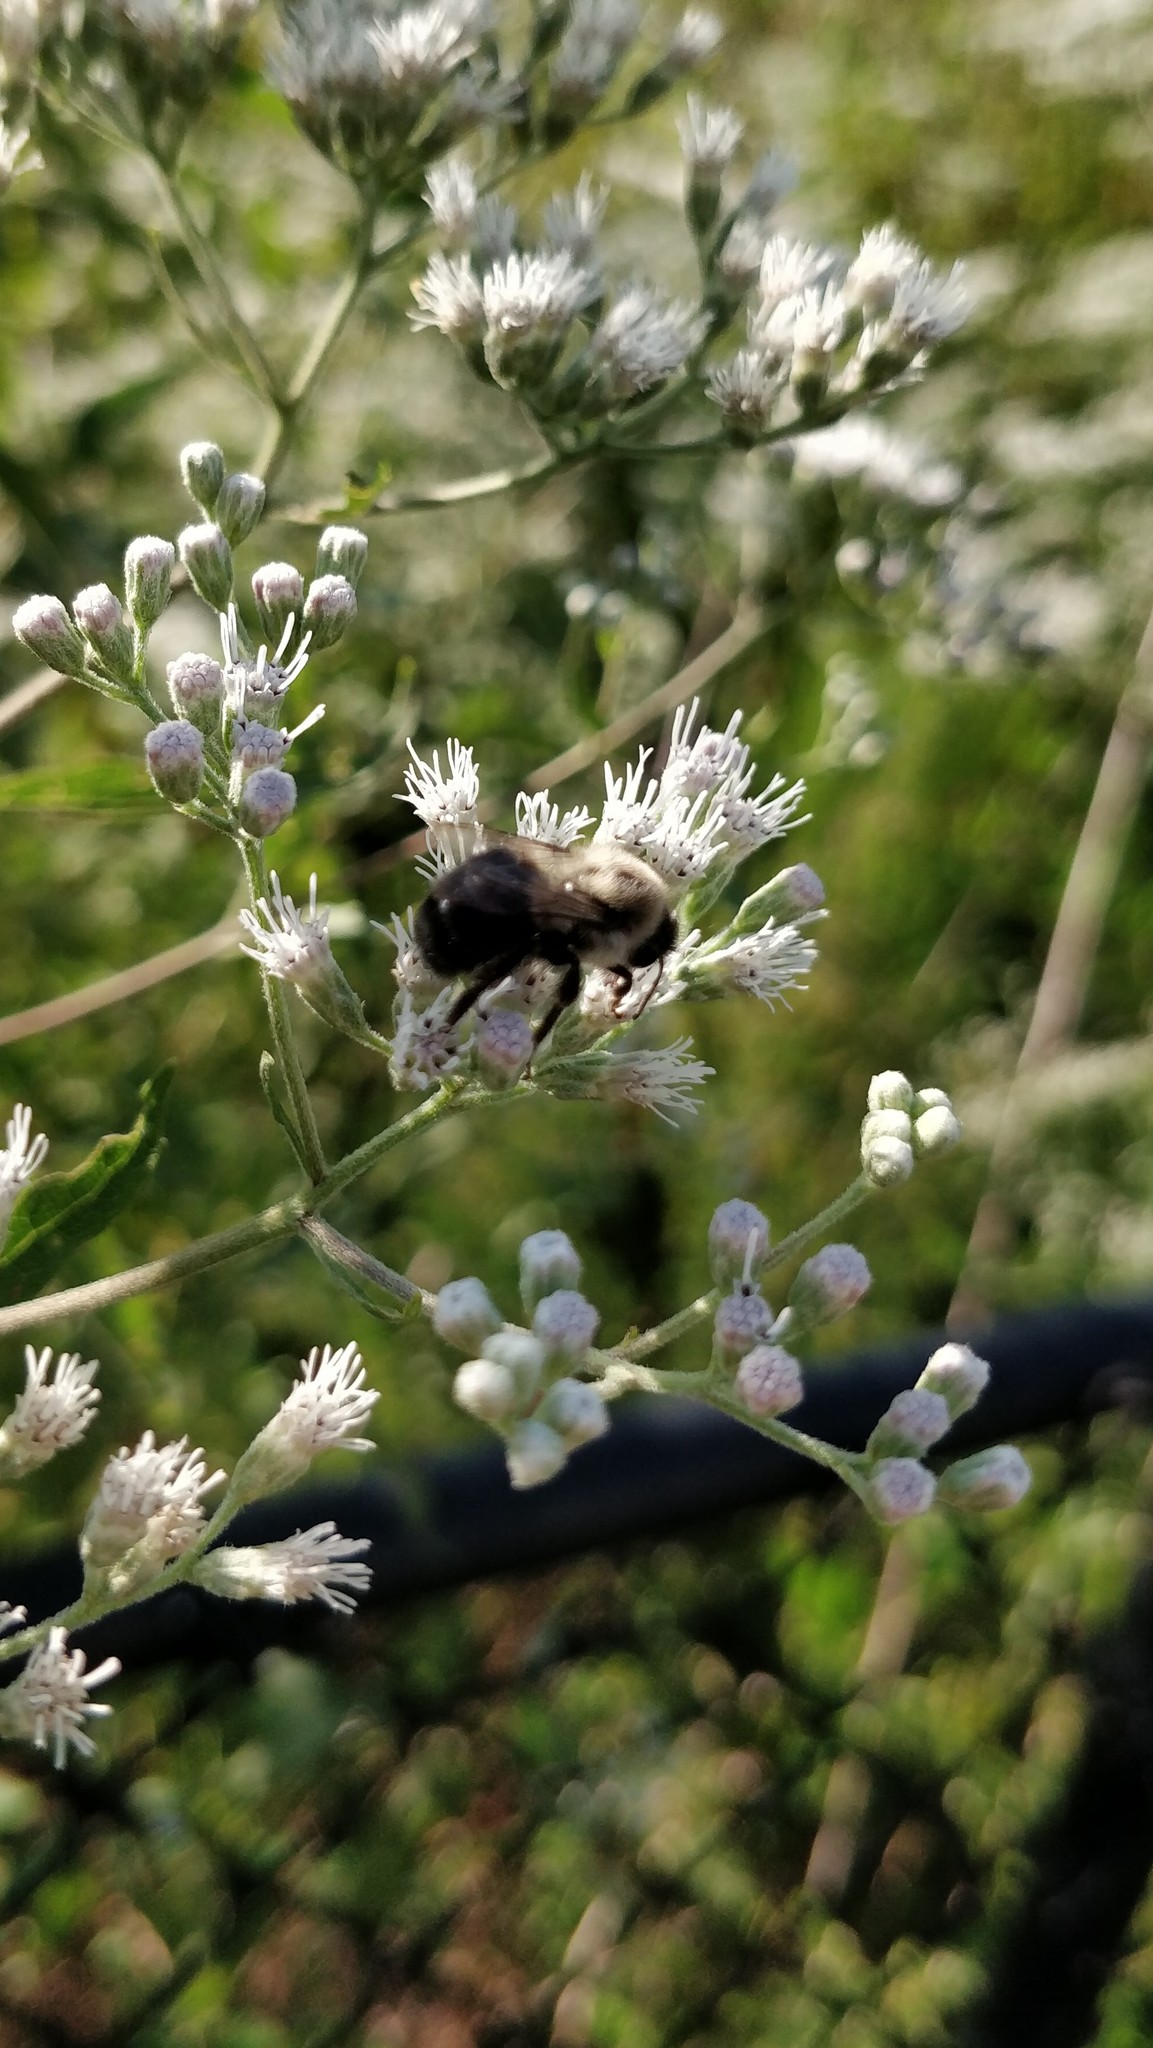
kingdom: Animalia
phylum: Arthropoda
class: Insecta
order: Hymenoptera
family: Apidae
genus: Bombus
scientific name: Bombus impatiens
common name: Common eastern bumble bee
